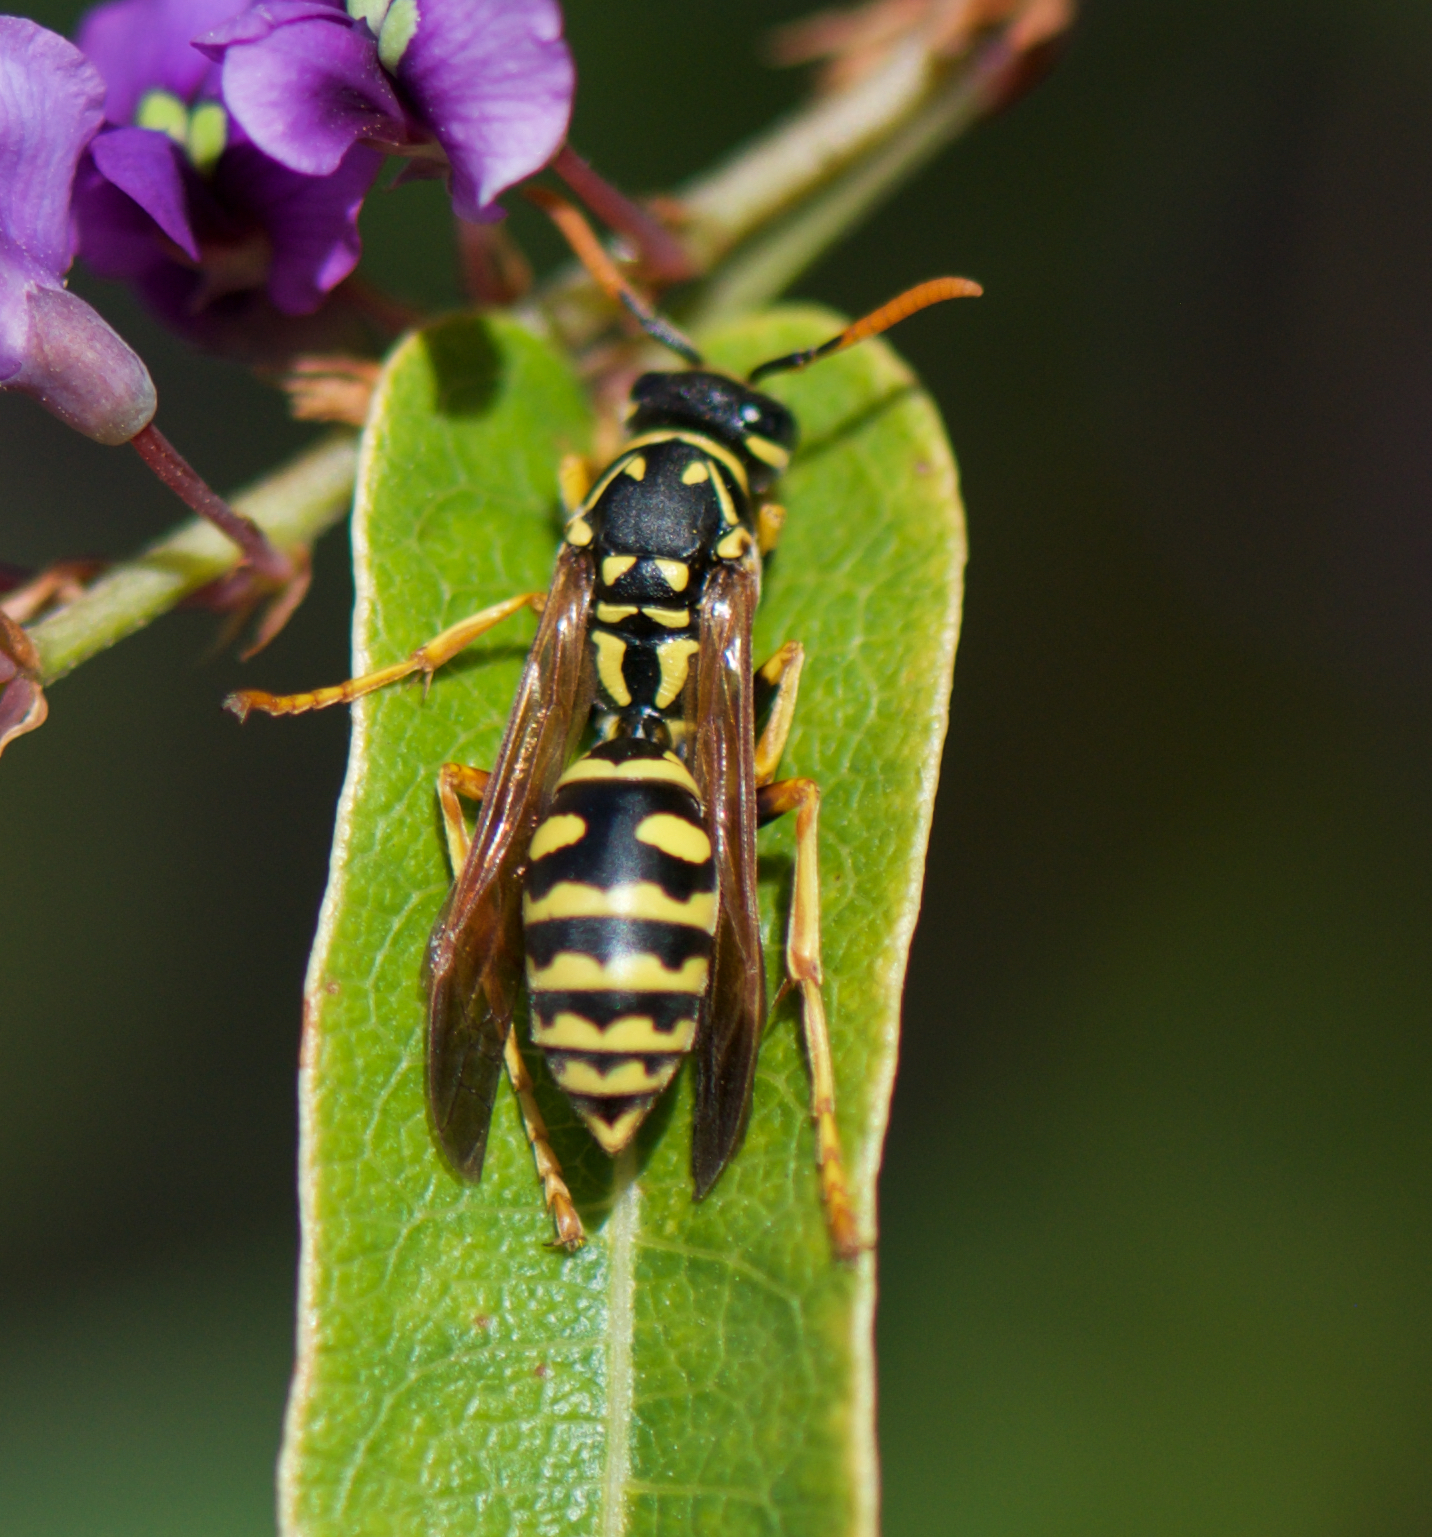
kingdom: Animalia
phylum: Arthropoda
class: Insecta
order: Hymenoptera
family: Eumenidae
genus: Polistes
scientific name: Polistes dominula
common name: Paper wasp
